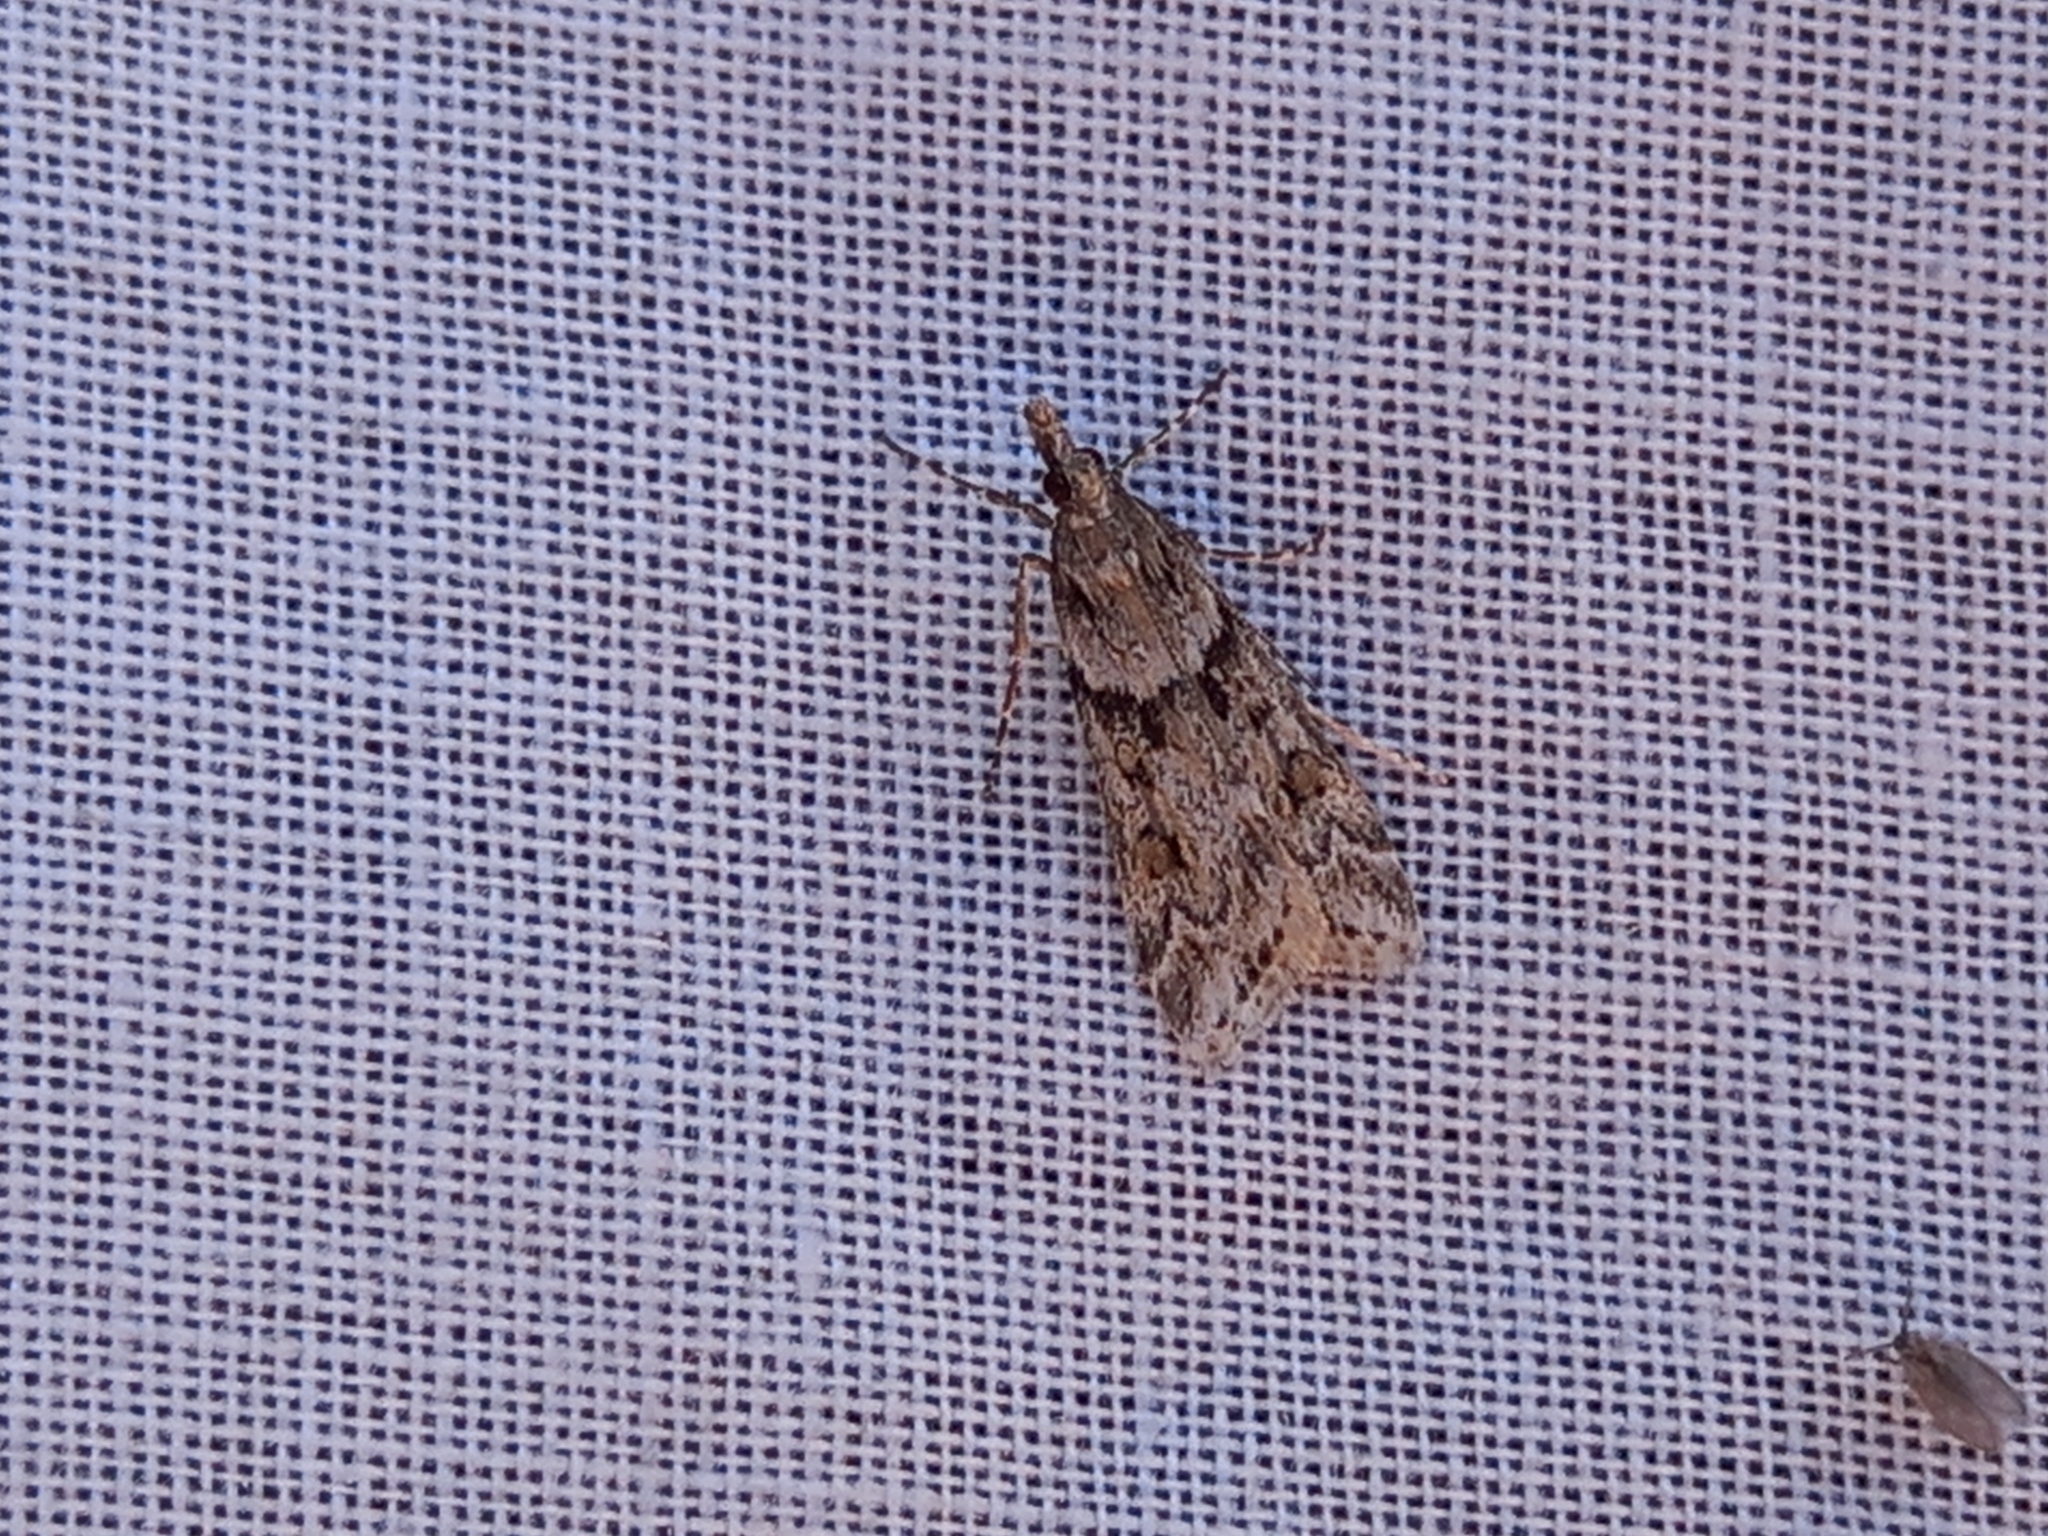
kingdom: Animalia
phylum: Arthropoda
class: Insecta
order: Lepidoptera
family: Crambidae
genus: Eudonia
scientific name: Eudonia angustea
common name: Narrow-winged grey
